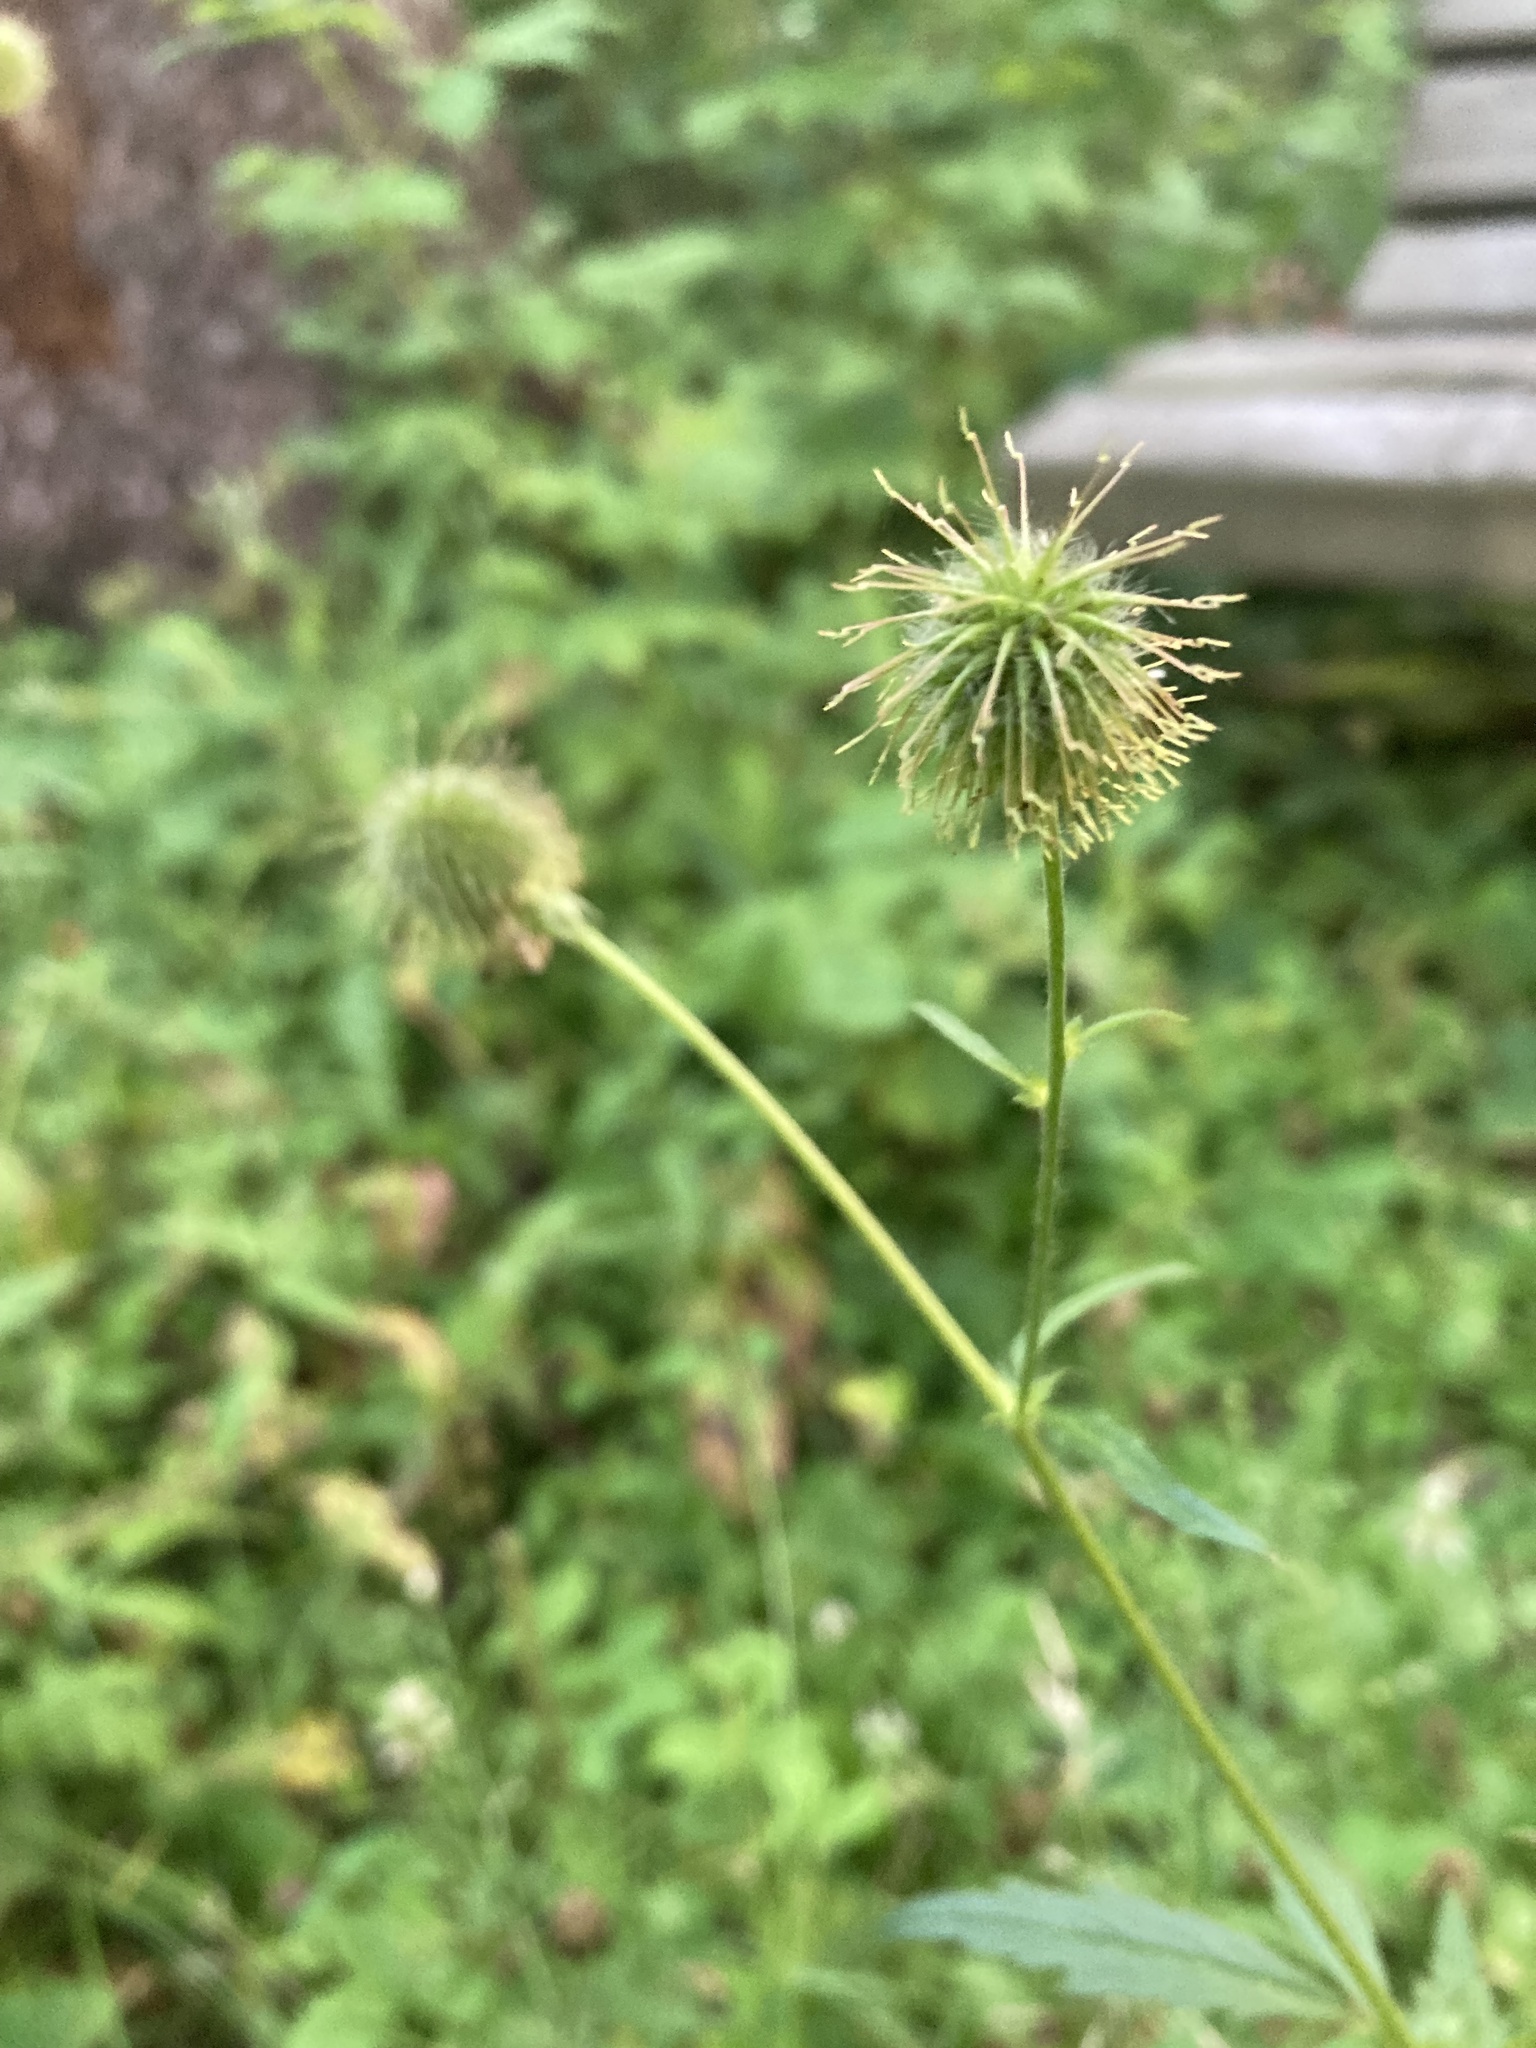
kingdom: Plantae
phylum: Tracheophyta
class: Magnoliopsida
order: Rosales
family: Rosaceae
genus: Geum
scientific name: Geum aleppicum
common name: Yellow avens
